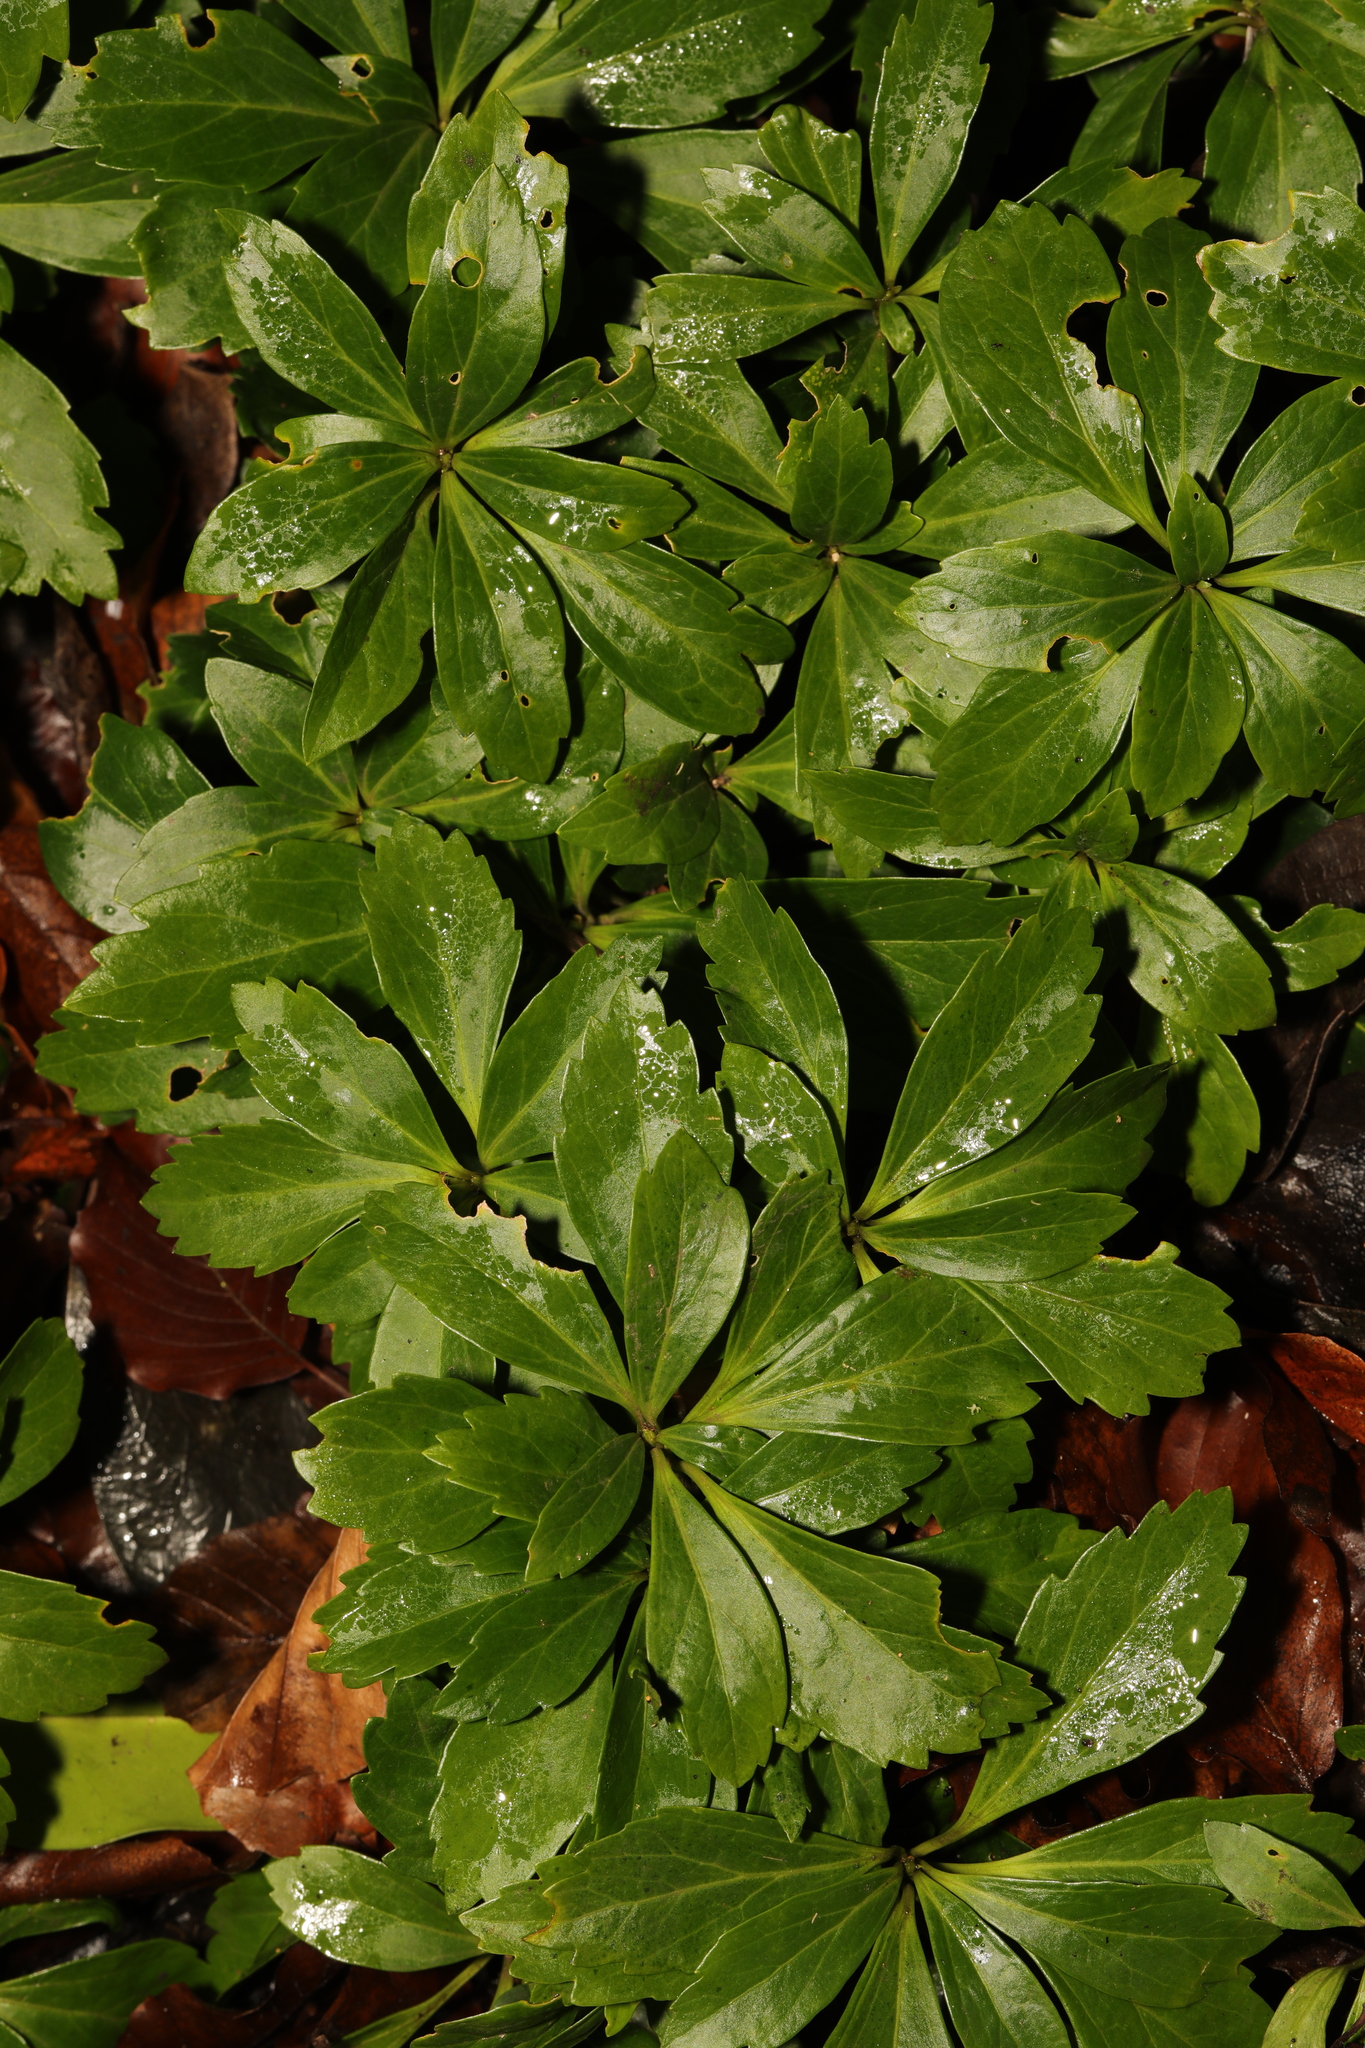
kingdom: Plantae
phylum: Tracheophyta
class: Magnoliopsida
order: Buxales
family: Buxaceae
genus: Pachysandra
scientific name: Pachysandra terminalis
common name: Japanese pachysandra
